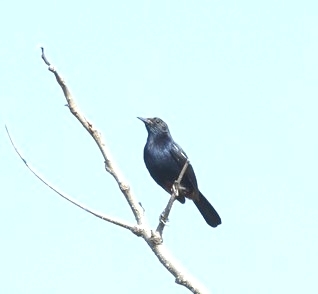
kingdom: Animalia
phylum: Chordata
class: Aves
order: Passeriformes
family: Muscicapidae
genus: Saxicoloides
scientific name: Saxicoloides fulicatus
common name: Indian robin
